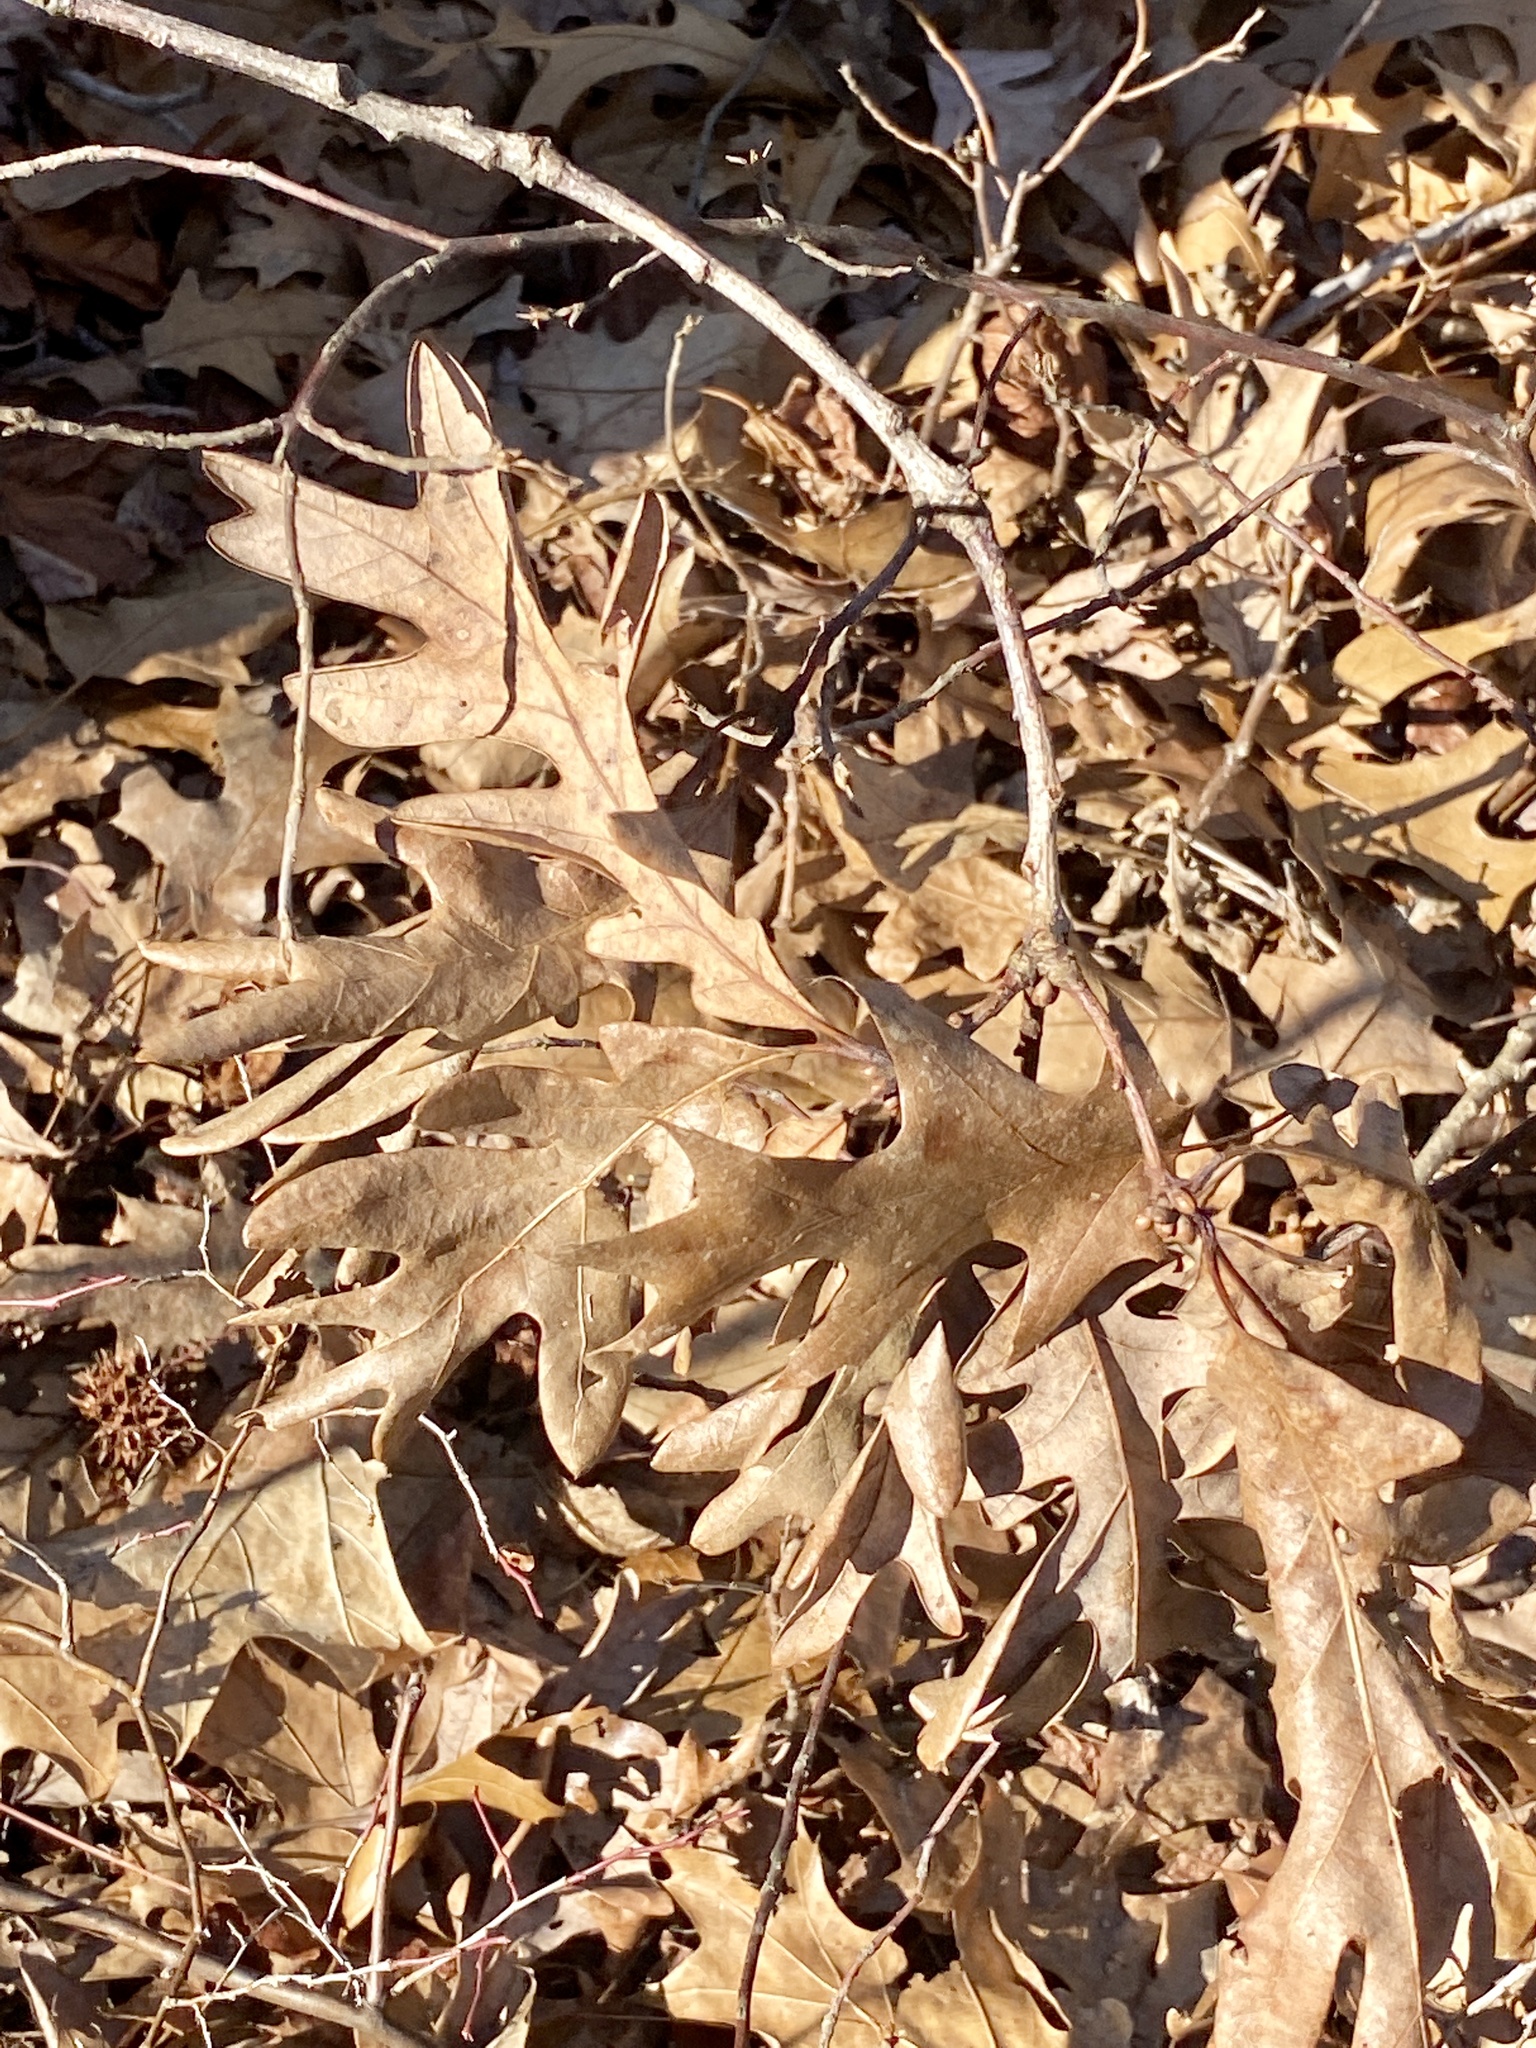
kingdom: Plantae
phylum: Tracheophyta
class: Magnoliopsida
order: Fagales
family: Fagaceae
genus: Quercus
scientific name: Quercus alba
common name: White oak
